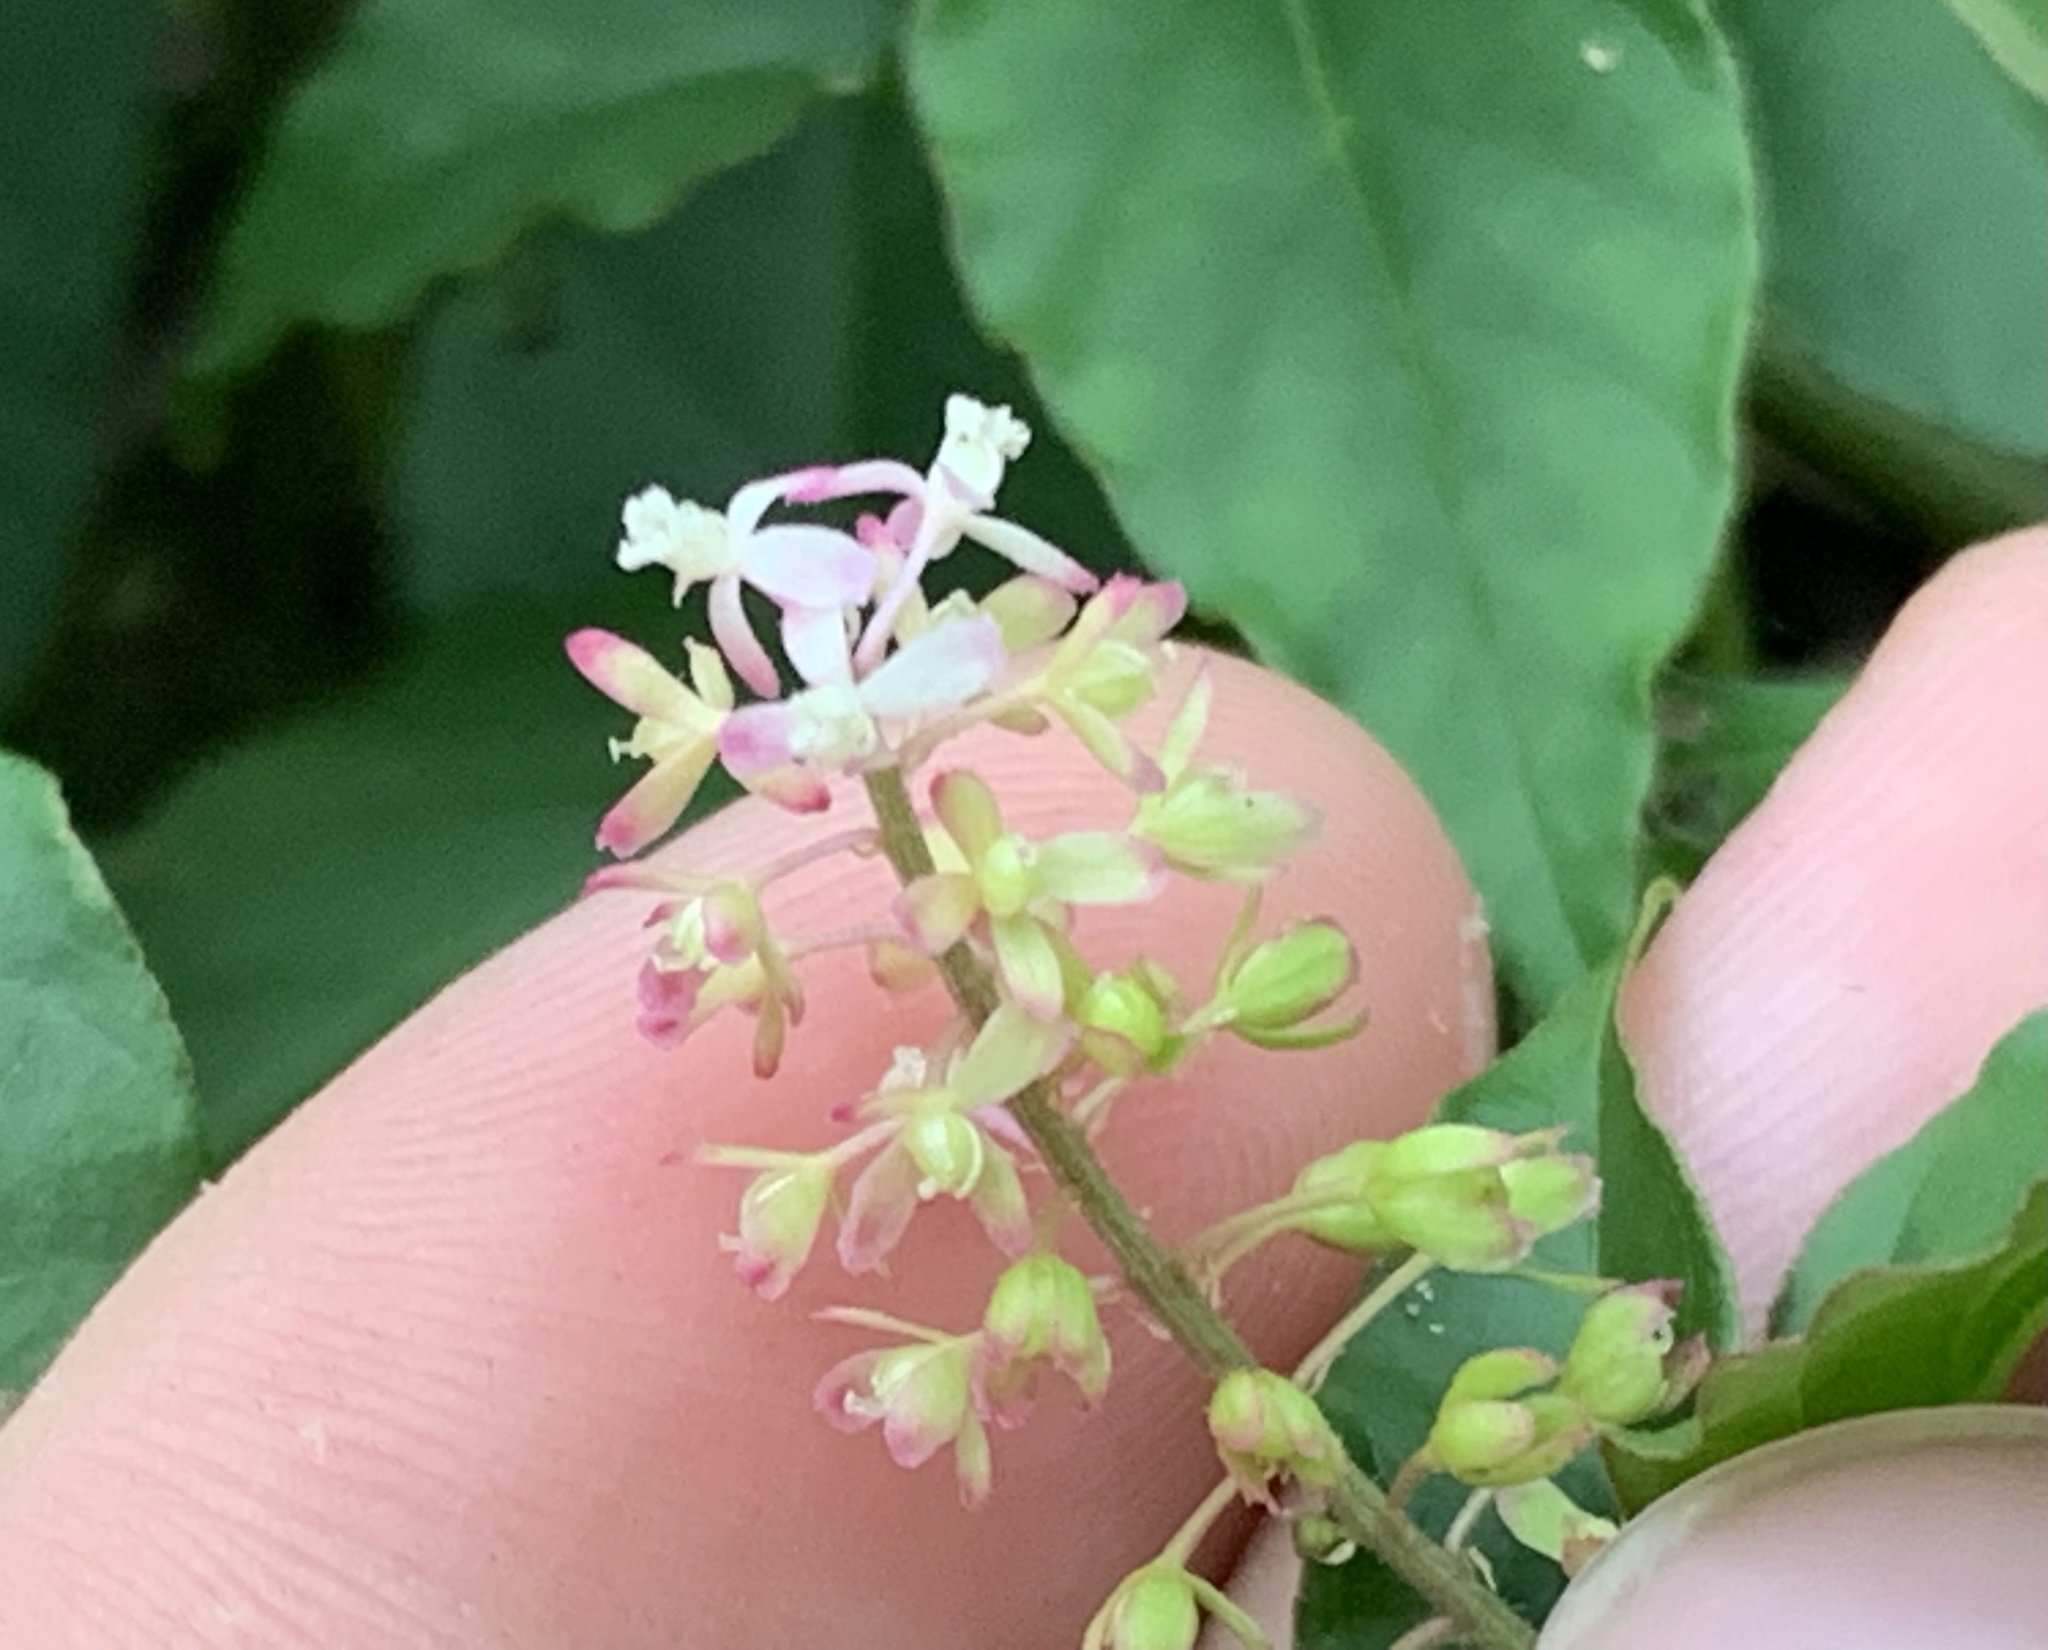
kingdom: Plantae
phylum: Tracheophyta
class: Magnoliopsida
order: Caryophyllales
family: Phytolaccaceae
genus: Rivina
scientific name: Rivina humilis
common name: Rougeplant
